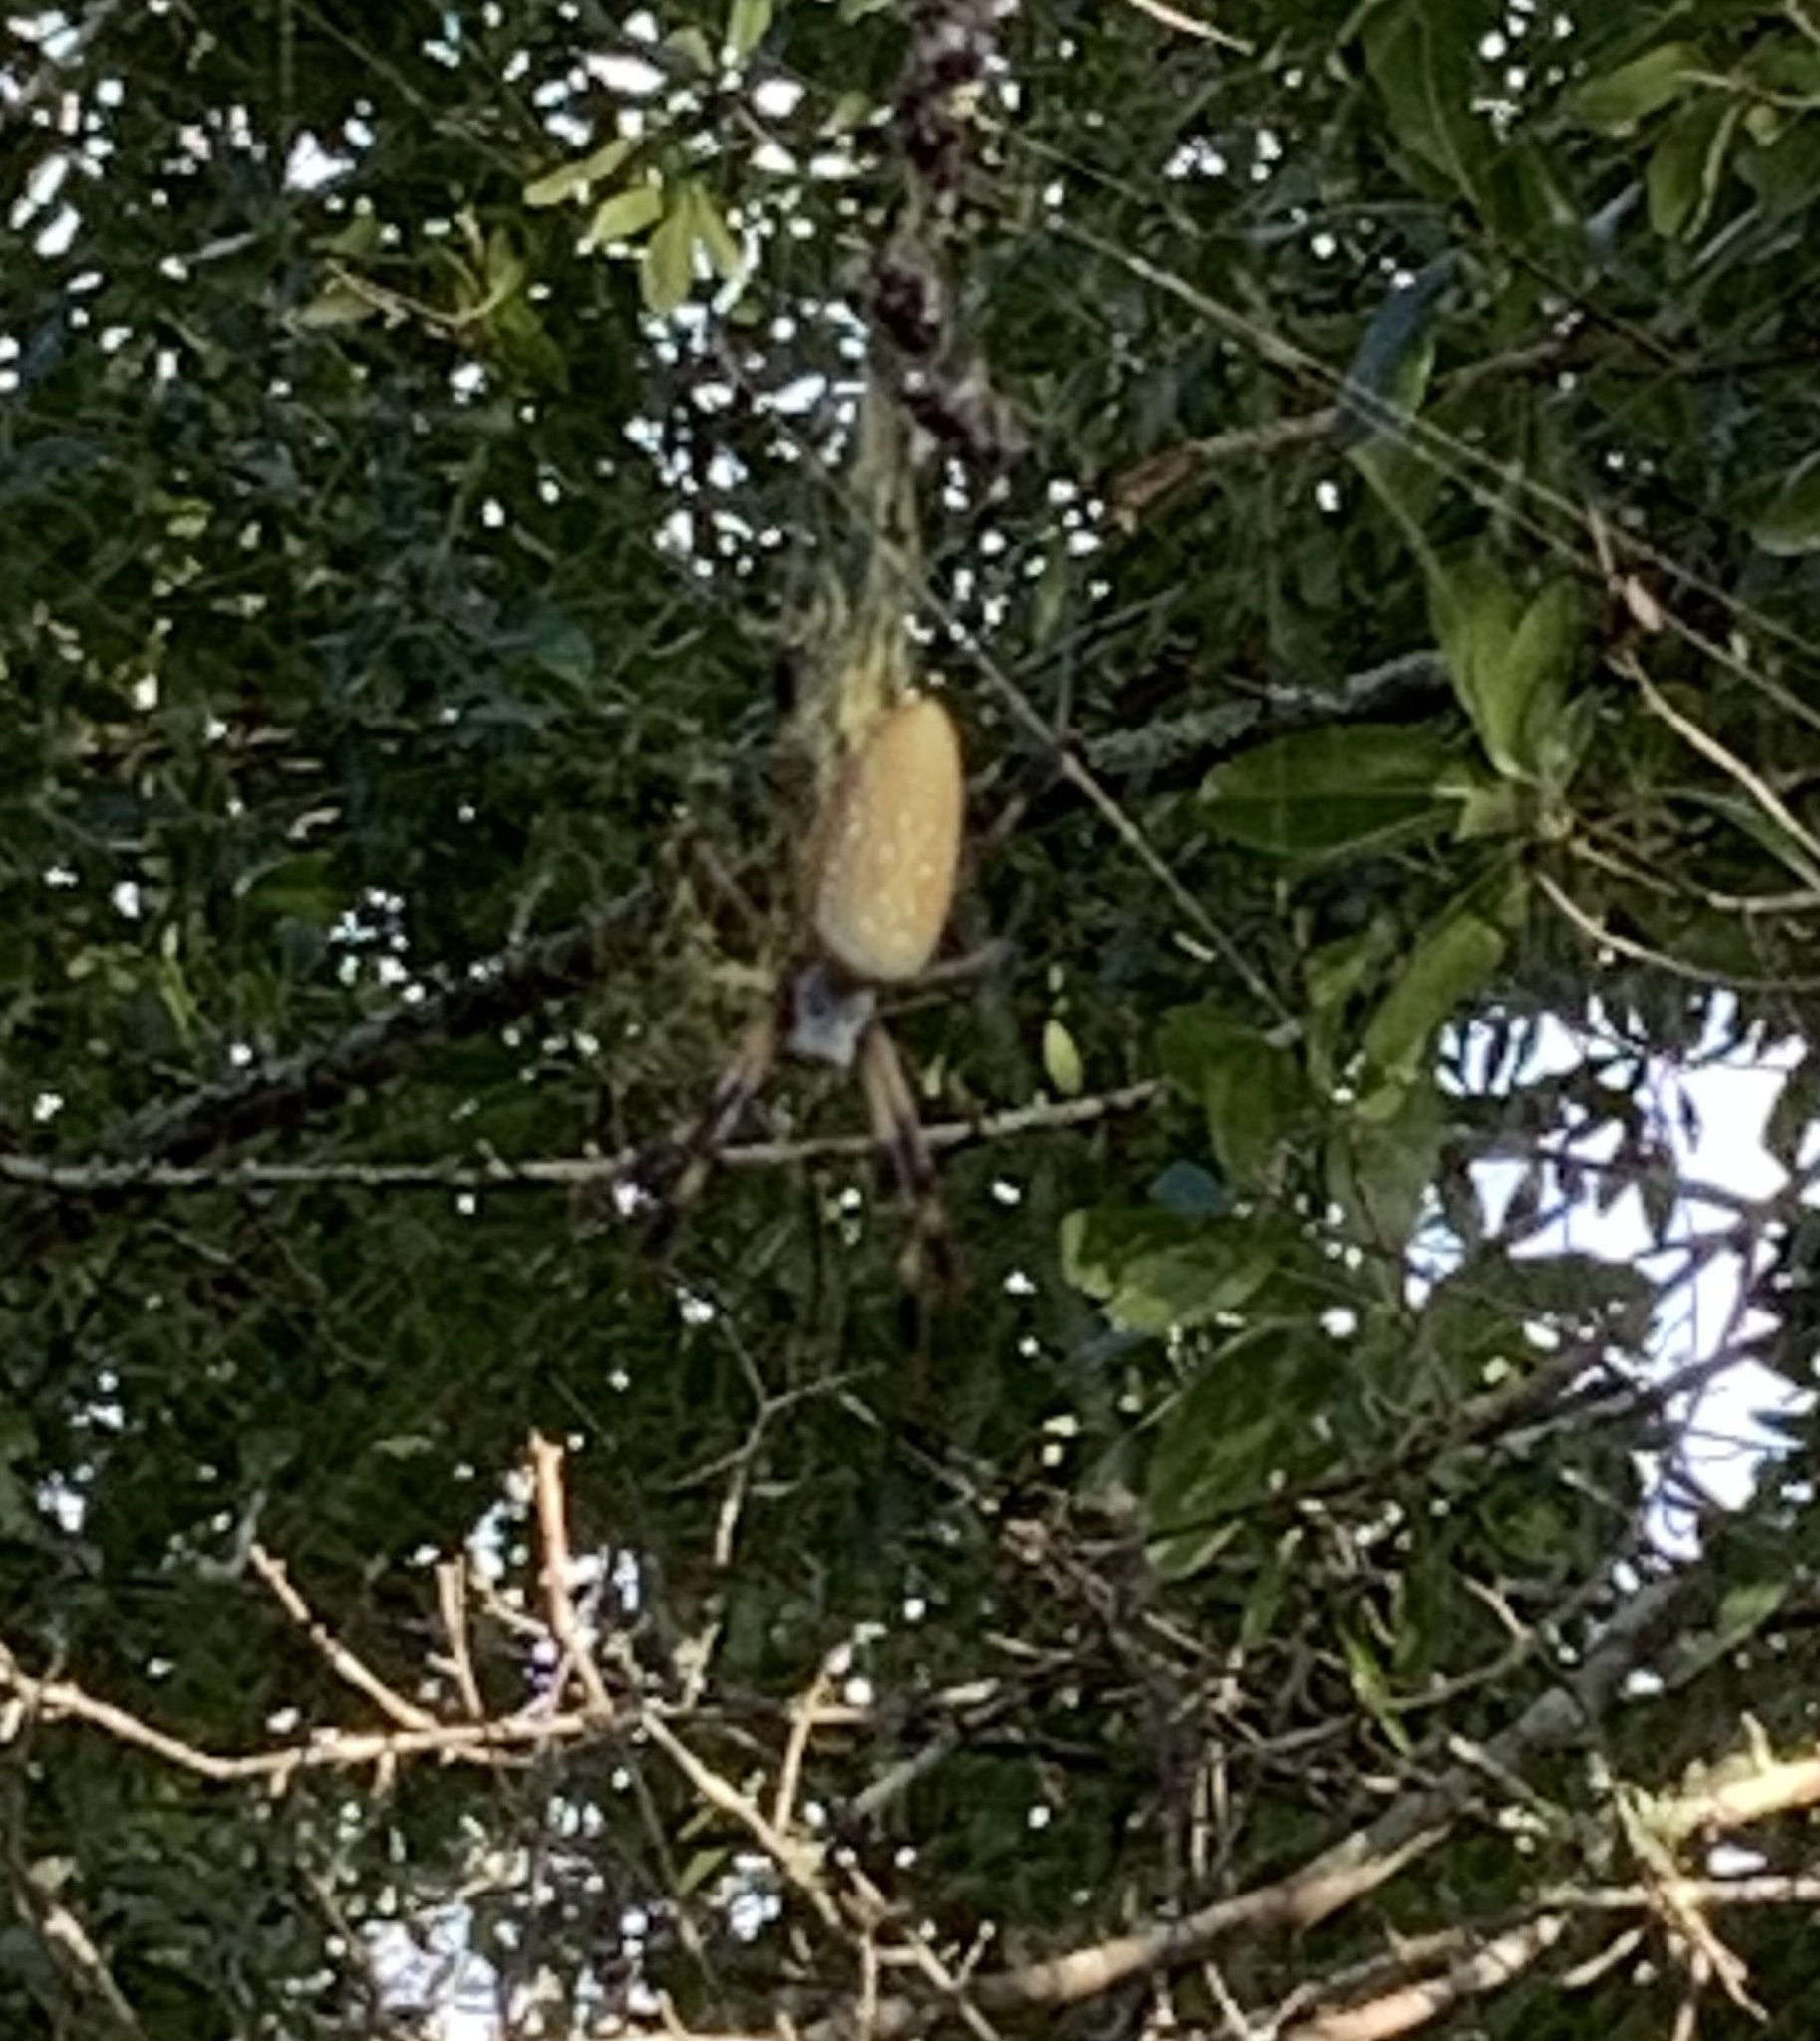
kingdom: Animalia
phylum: Arthropoda
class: Arachnida
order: Araneae
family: Araneidae
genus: Trichonephila
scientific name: Trichonephila clavipes
